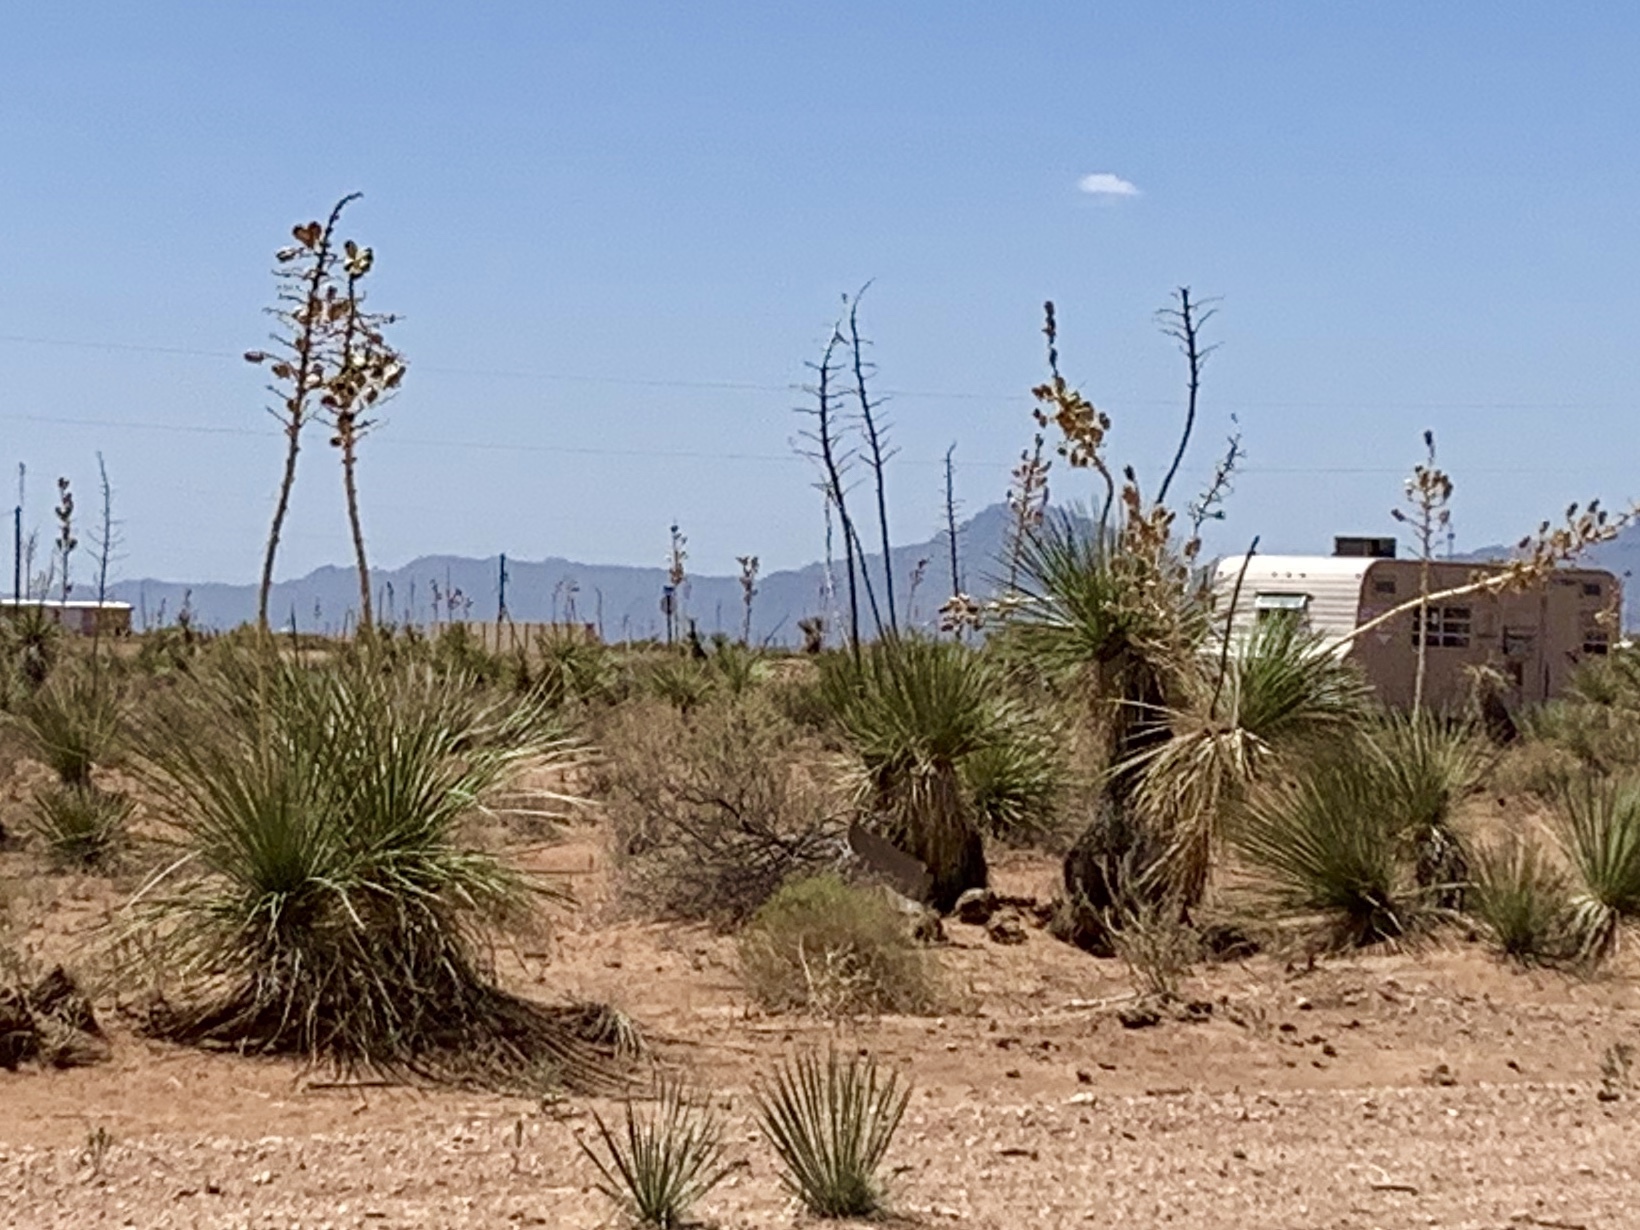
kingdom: Plantae
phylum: Tracheophyta
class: Liliopsida
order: Asparagales
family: Asparagaceae
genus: Yucca
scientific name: Yucca elata
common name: Palmella
